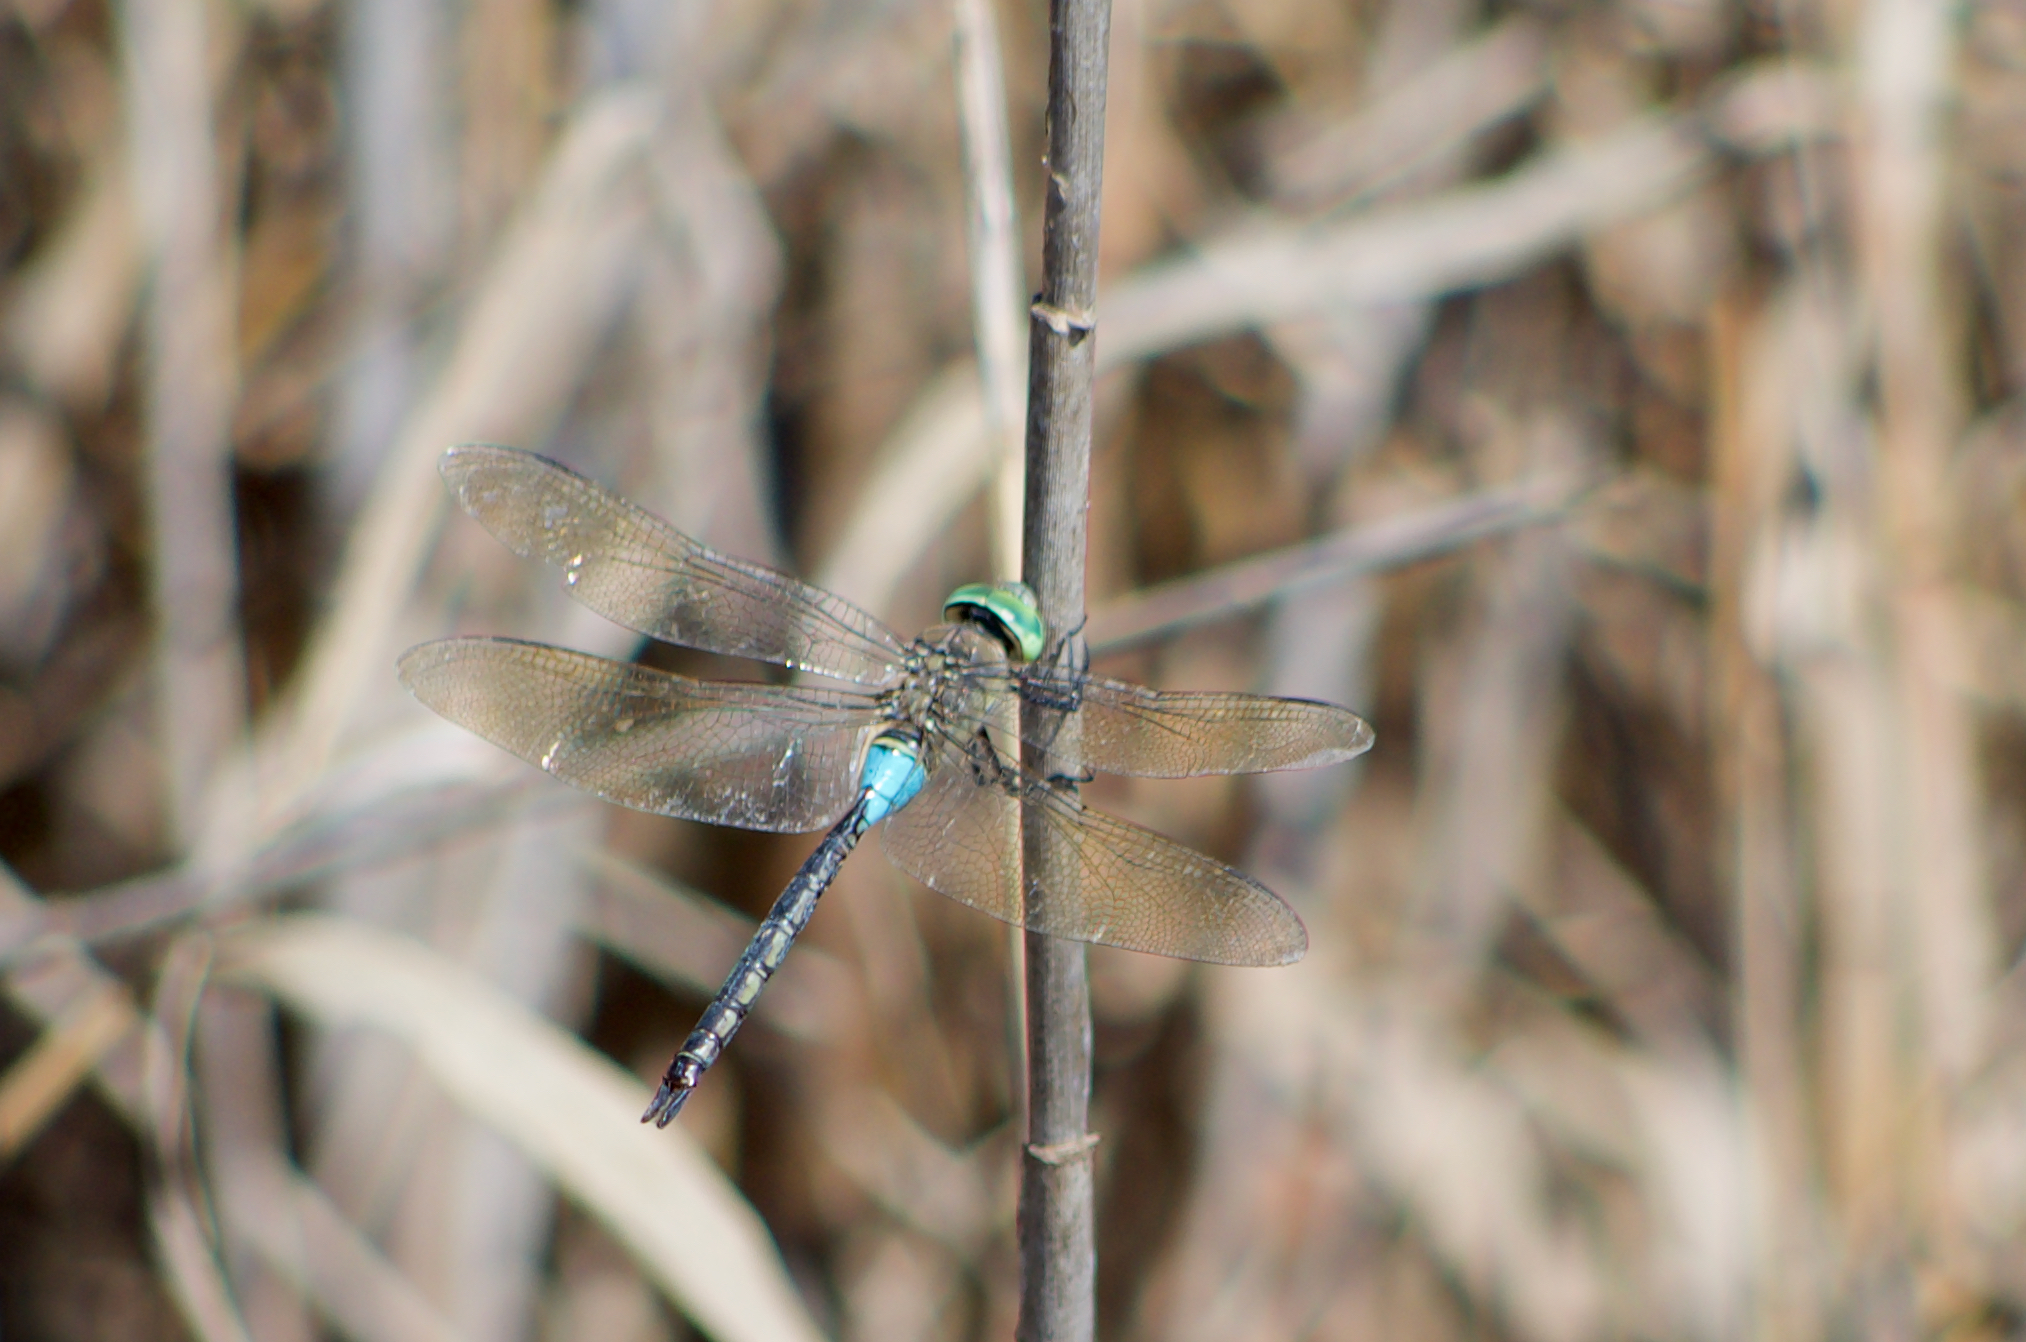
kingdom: Animalia
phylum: Arthropoda
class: Insecta
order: Odonata
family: Aeshnidae
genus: Anax
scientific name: Anax parthenope
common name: Lesser emperor
